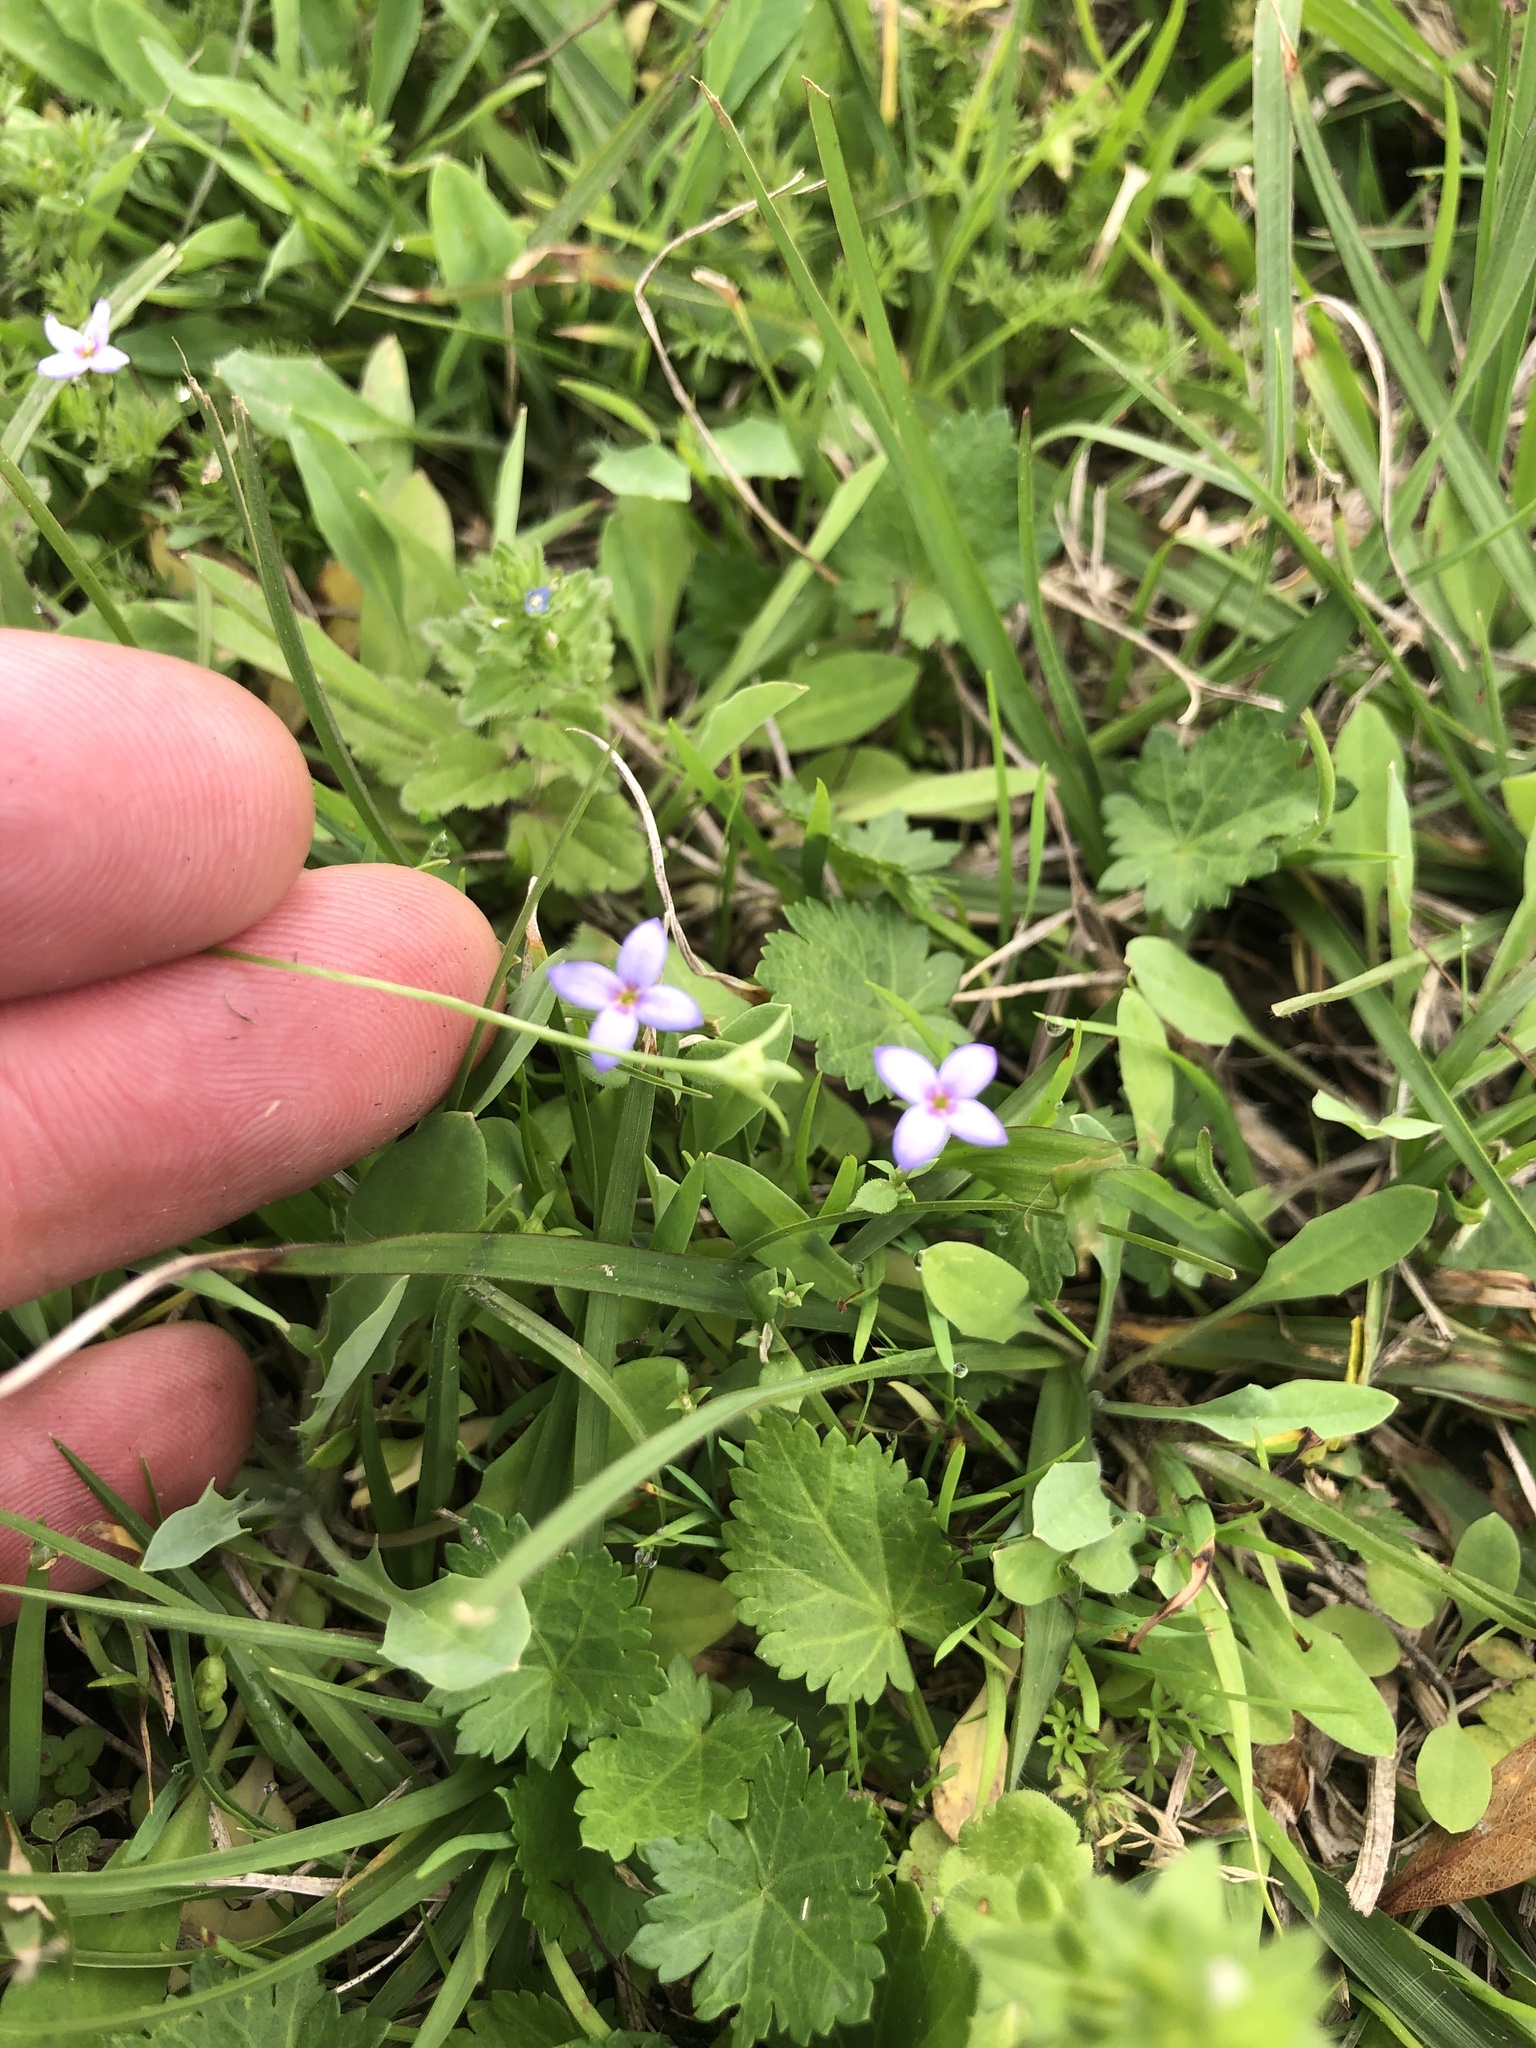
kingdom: Plantae
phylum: Tracheophyta
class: Magnoliopsida
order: Gentianales
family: Rubiaceae
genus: Houstonia
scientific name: Houstonia pusilla
